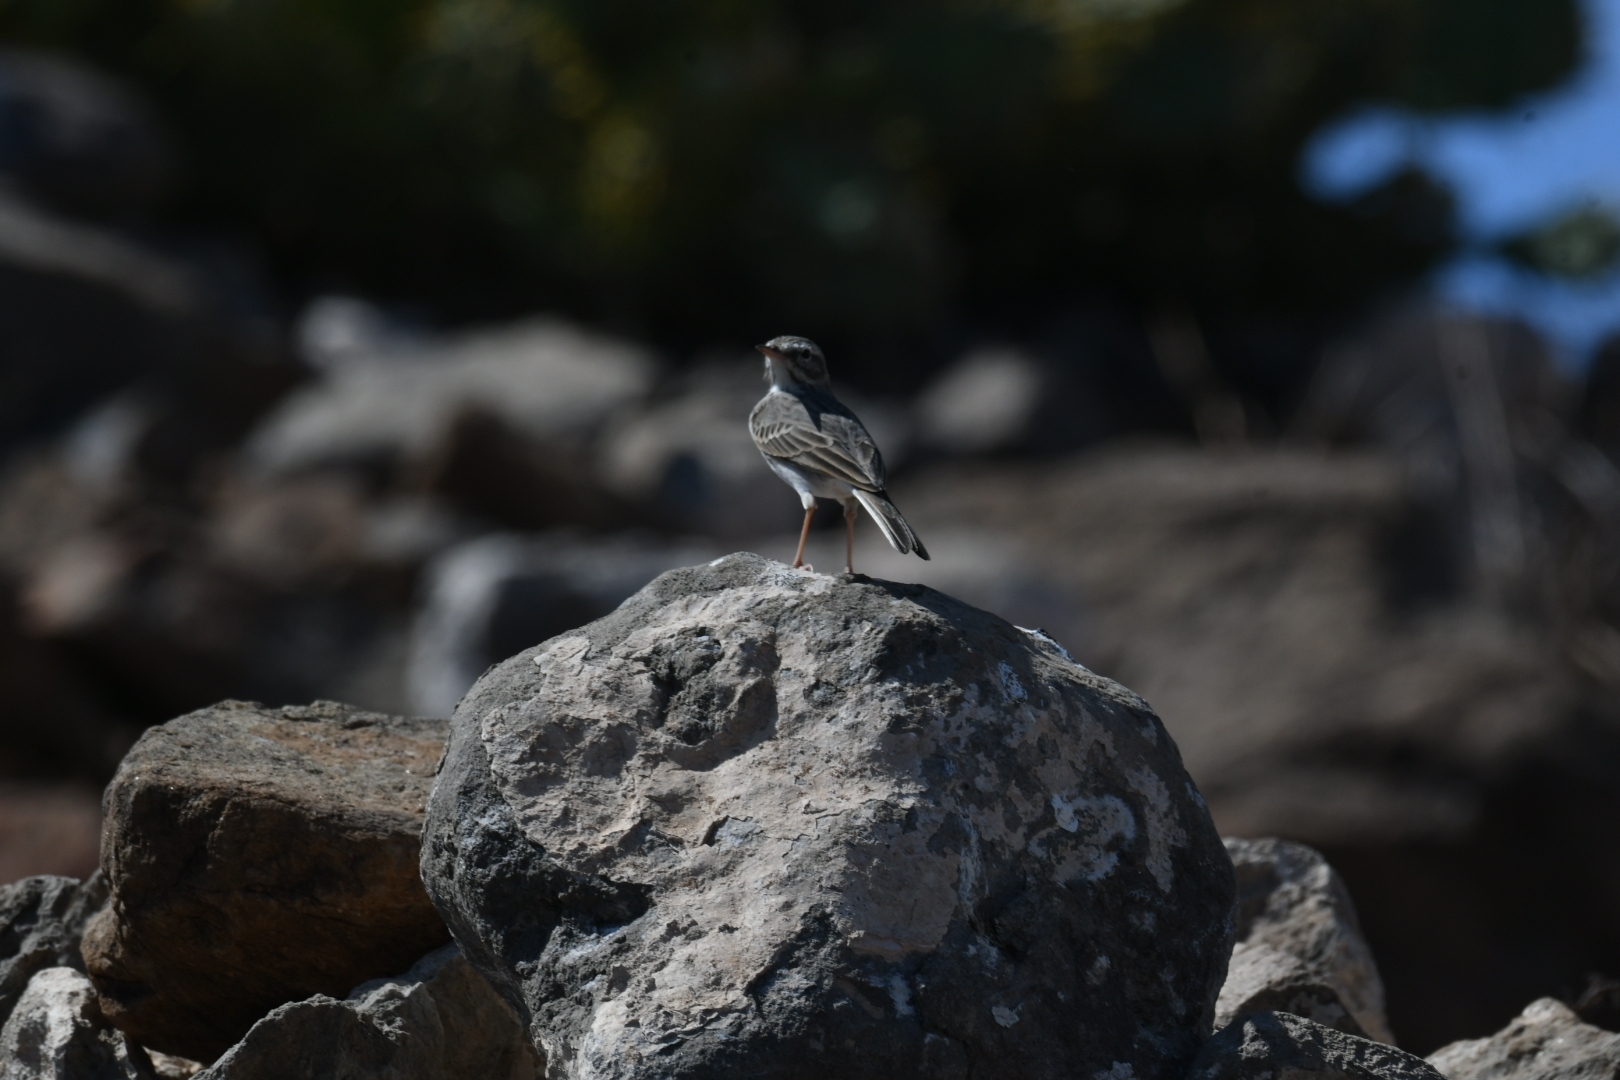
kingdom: Animalia
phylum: Chordata
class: Aves
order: Passeriformes
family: Motacillidae
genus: Anthus
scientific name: Anthus berthelotii
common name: Berthelot's pipit
